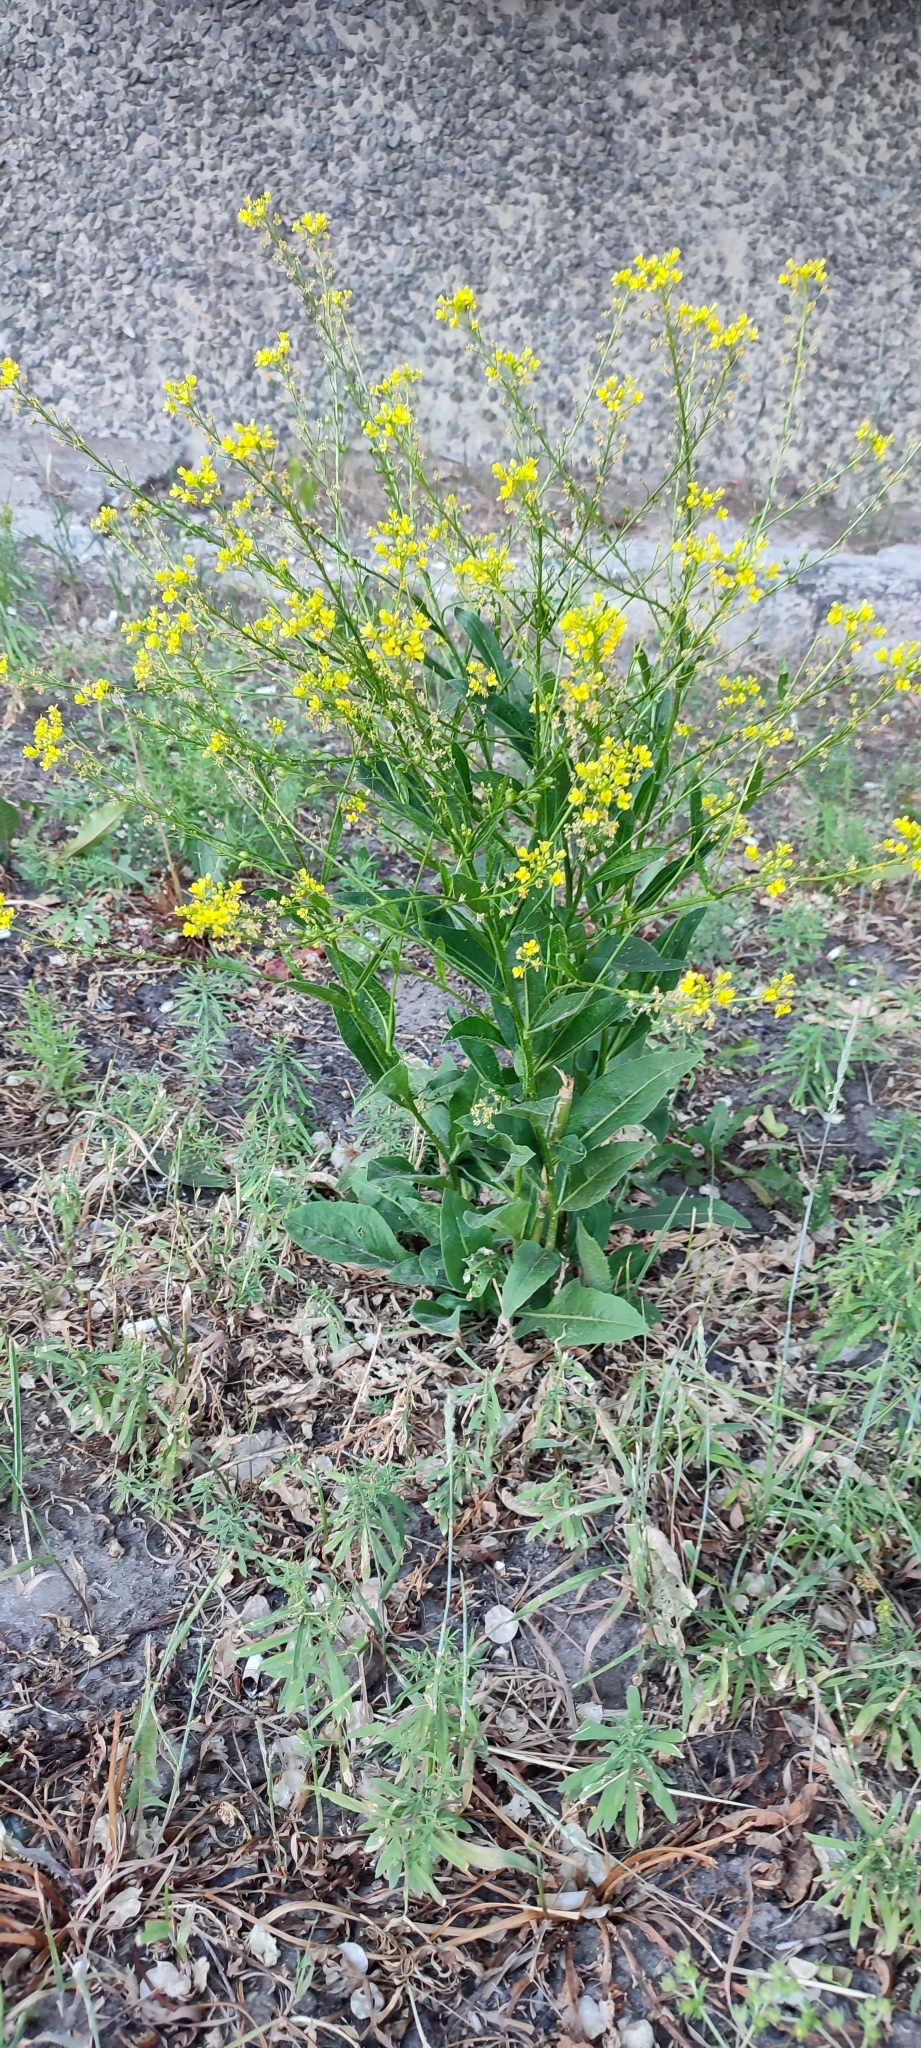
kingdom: Plantae
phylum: Tracheophyta
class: Magnoliopsida
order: Brassicales
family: Brassicaceae
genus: Bunias
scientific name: Bunias orientalis
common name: Warty-cabbage
